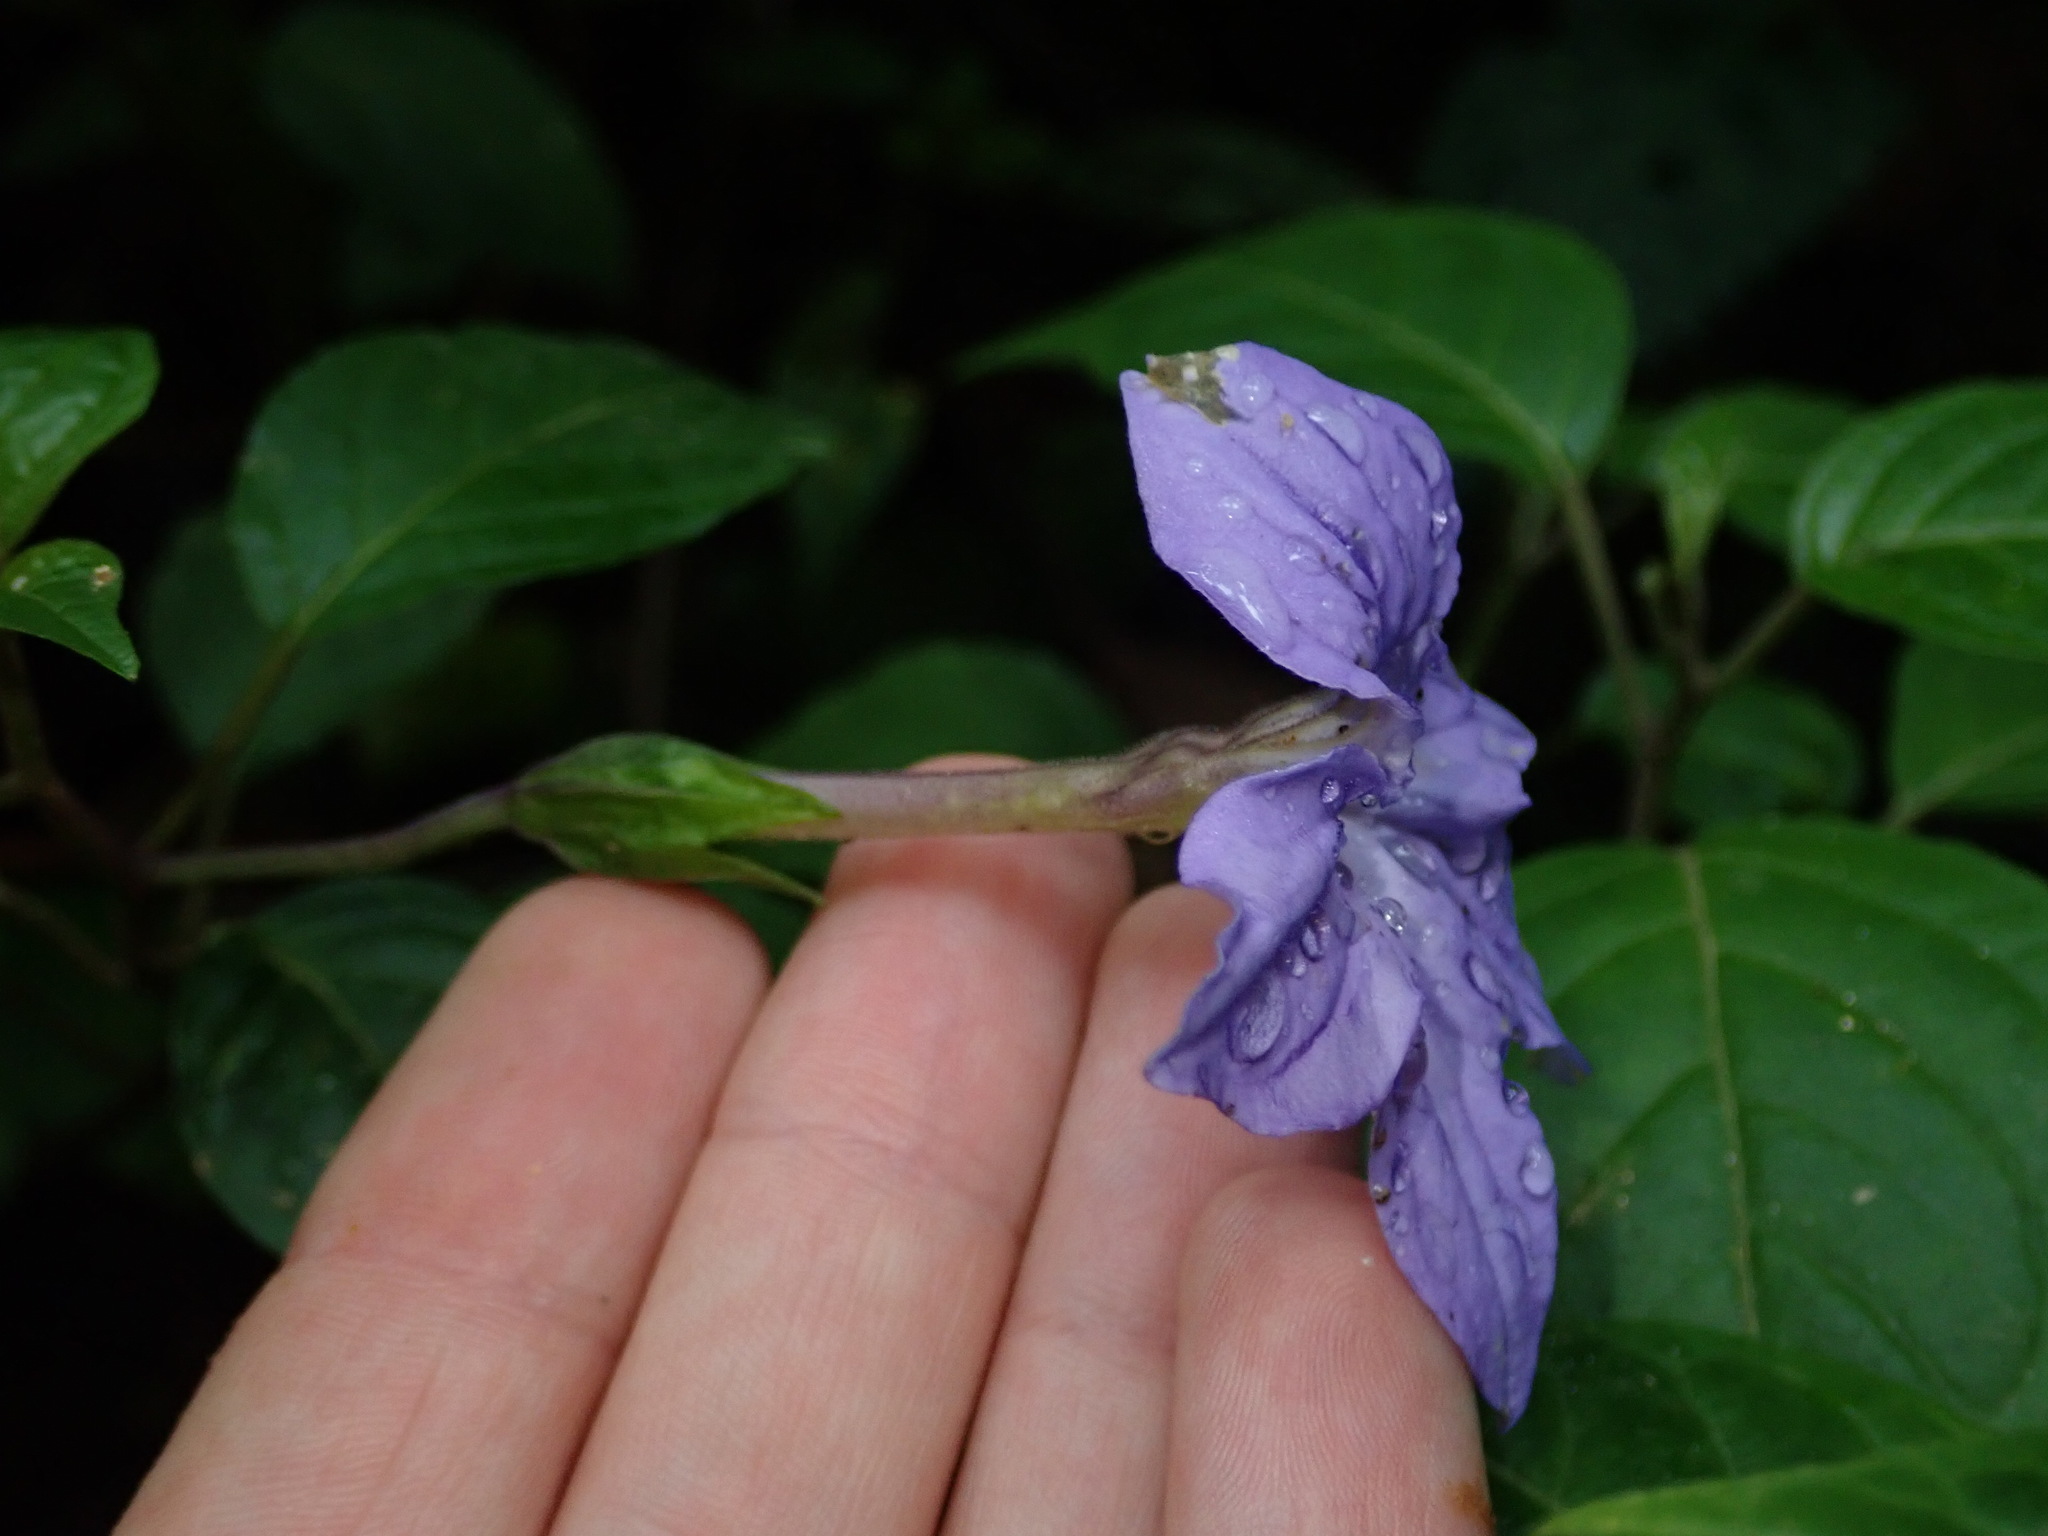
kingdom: Plantae
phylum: Tracheophyta
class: Magnoliopsida
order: Solanales
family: Solanaceae
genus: Browallia
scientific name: Browallia speciosa
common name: Bush-violet
